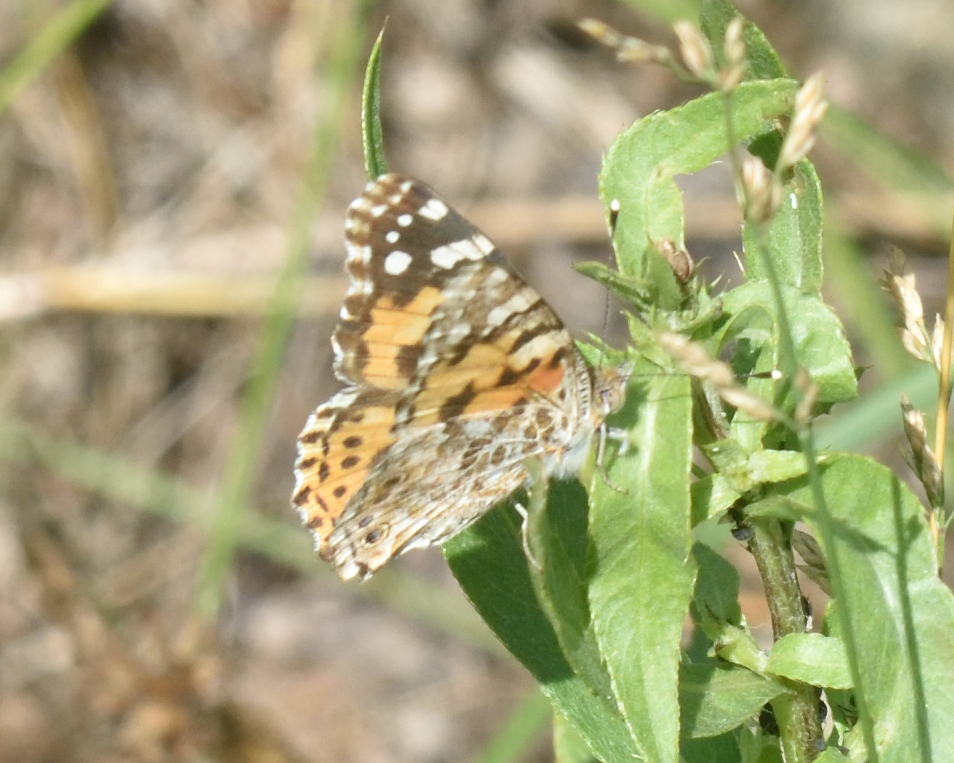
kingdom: Animalia
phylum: Arthropoda
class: Insecta
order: Lepidoptera
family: Nymphalidae
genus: Vanessa
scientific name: Vanessa cardui
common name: Painted lady
